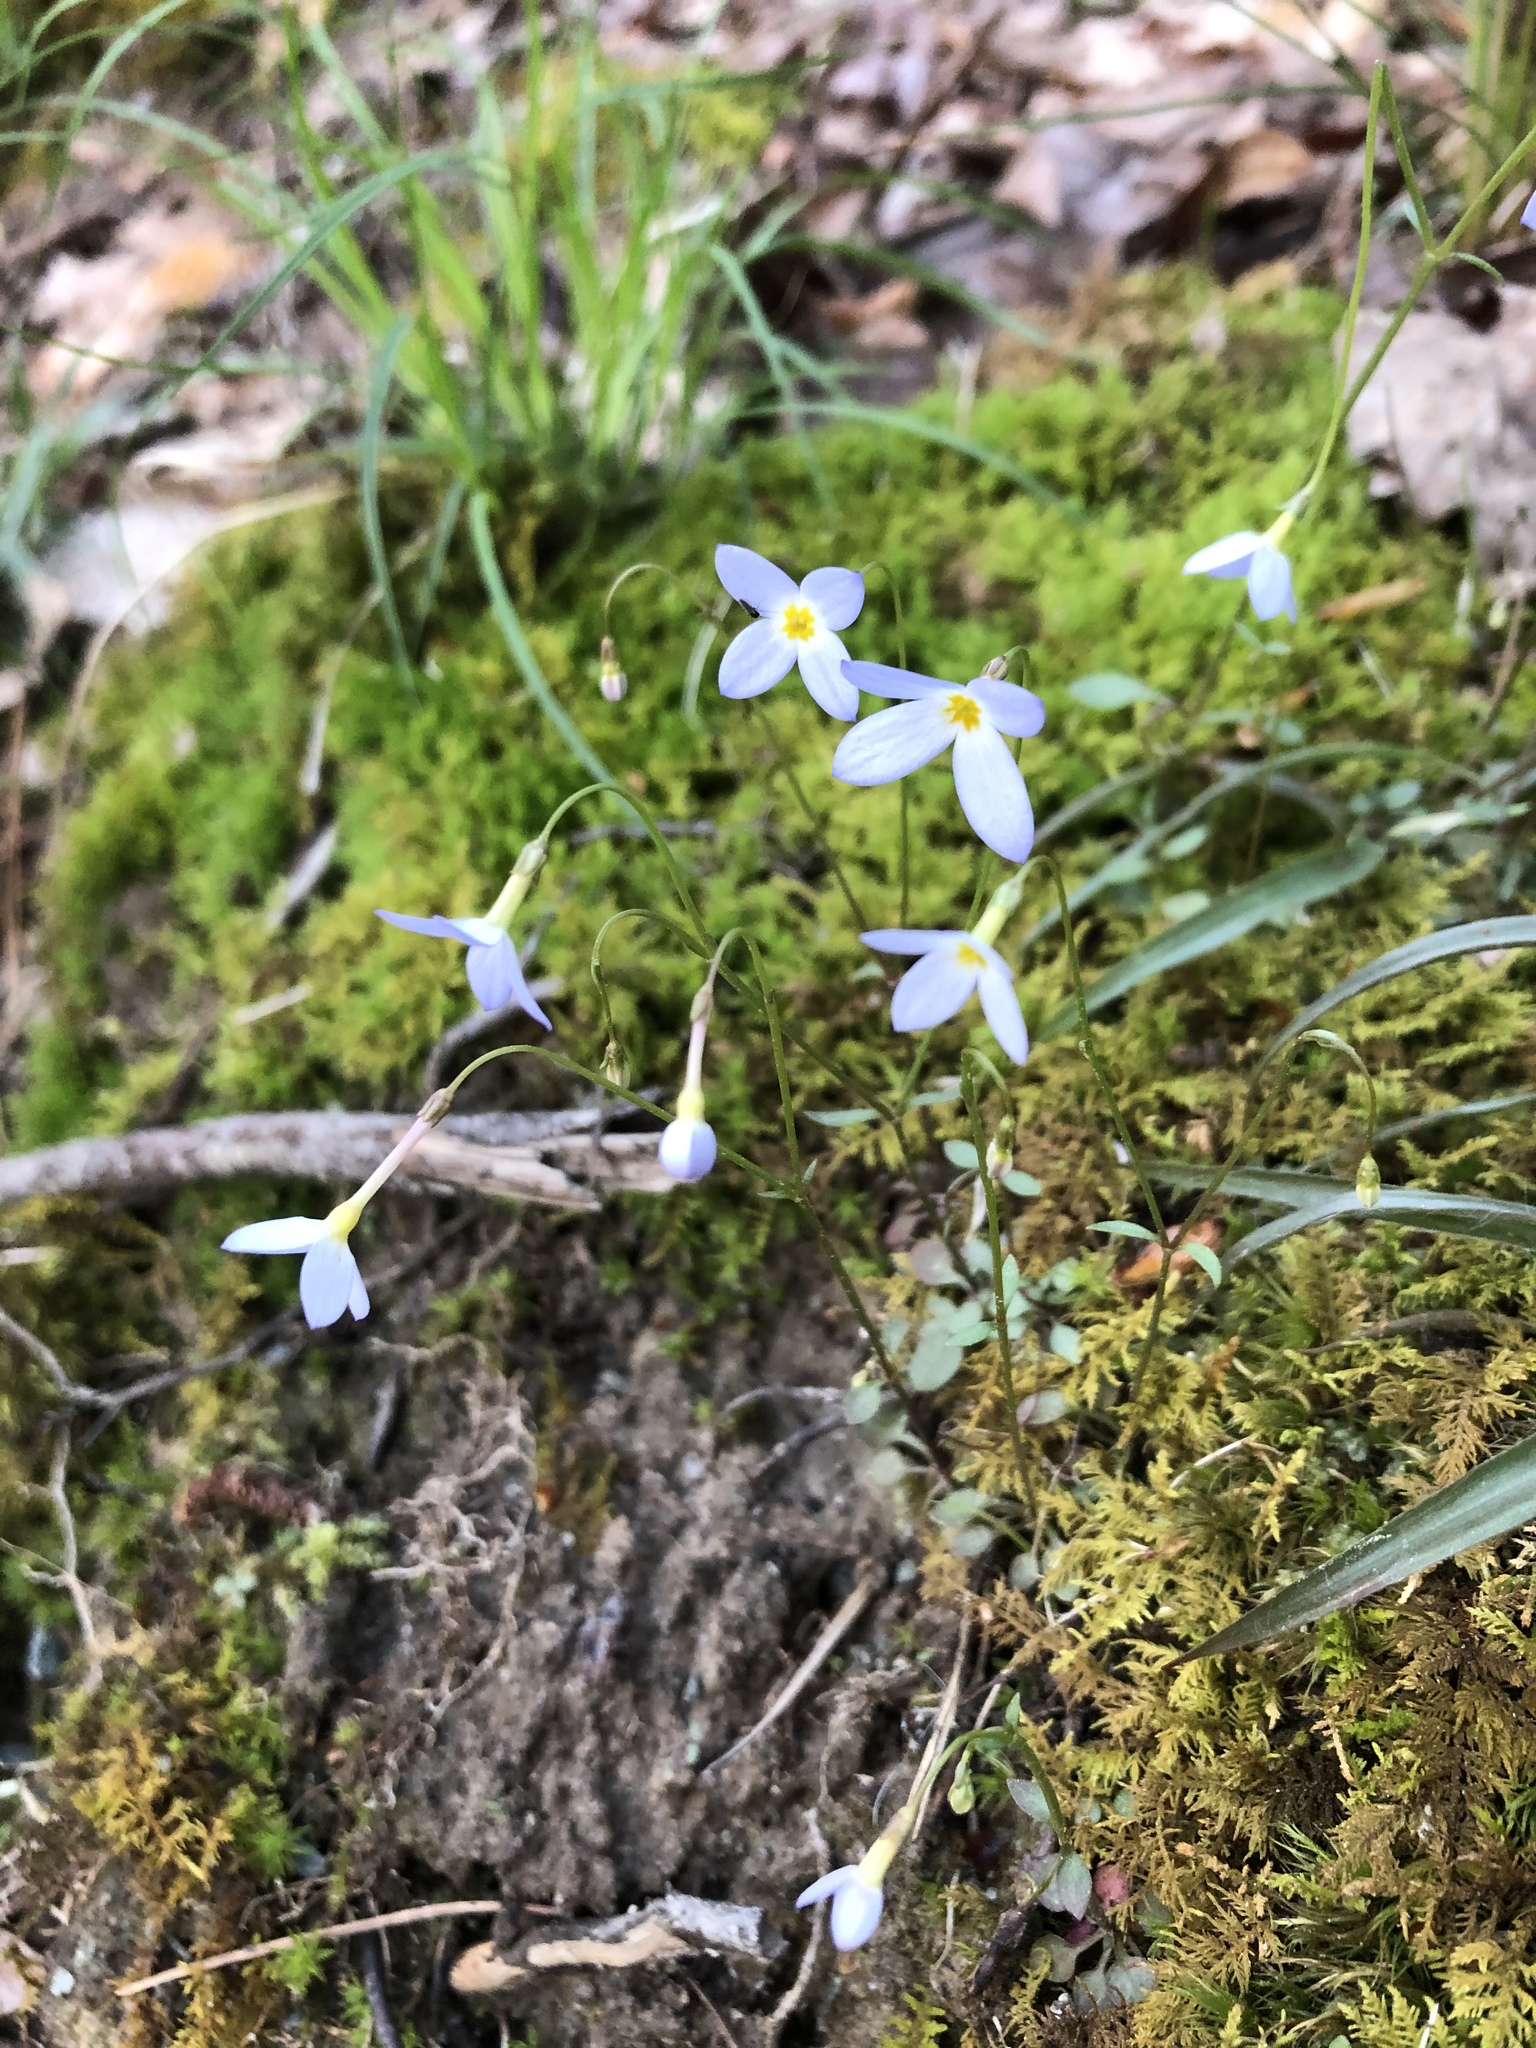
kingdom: Plantae
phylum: Tracheophyta
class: Magnoliopsida
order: Gentianales
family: Rubiaceae
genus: Houstonia
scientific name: Houstonia caerulea
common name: Bluets
